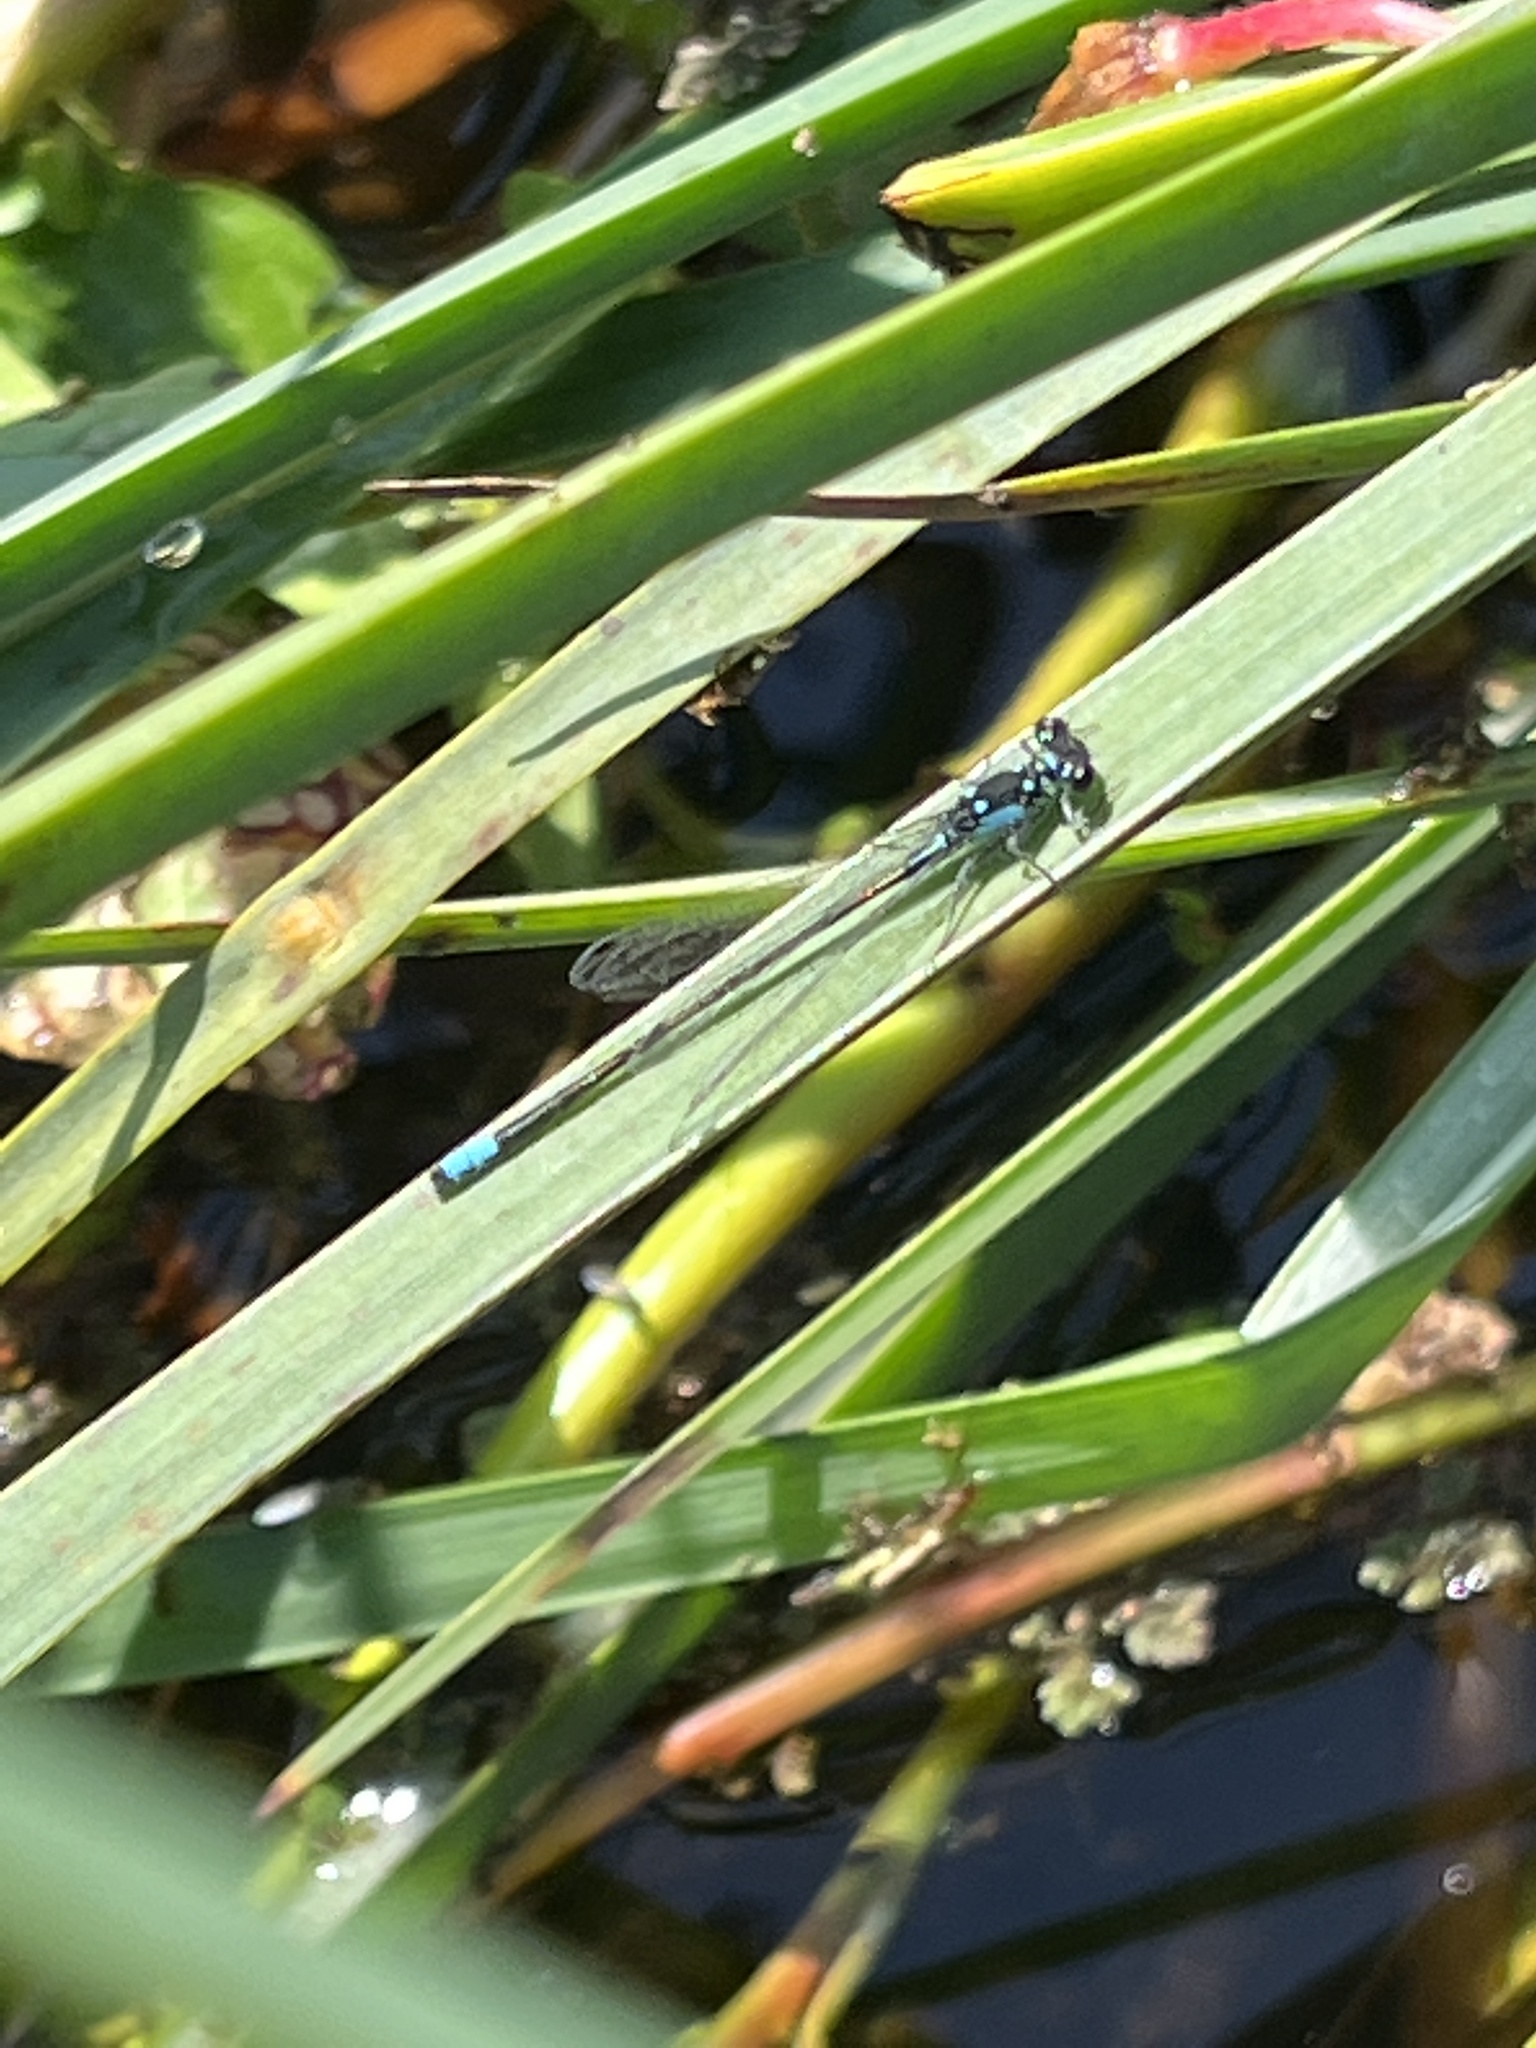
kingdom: Animalia
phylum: Arthropoda
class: Insecta
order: Odonata
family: Coenagrionidae
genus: Ischnura
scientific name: Ischnura cervula
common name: Pacific forktail
